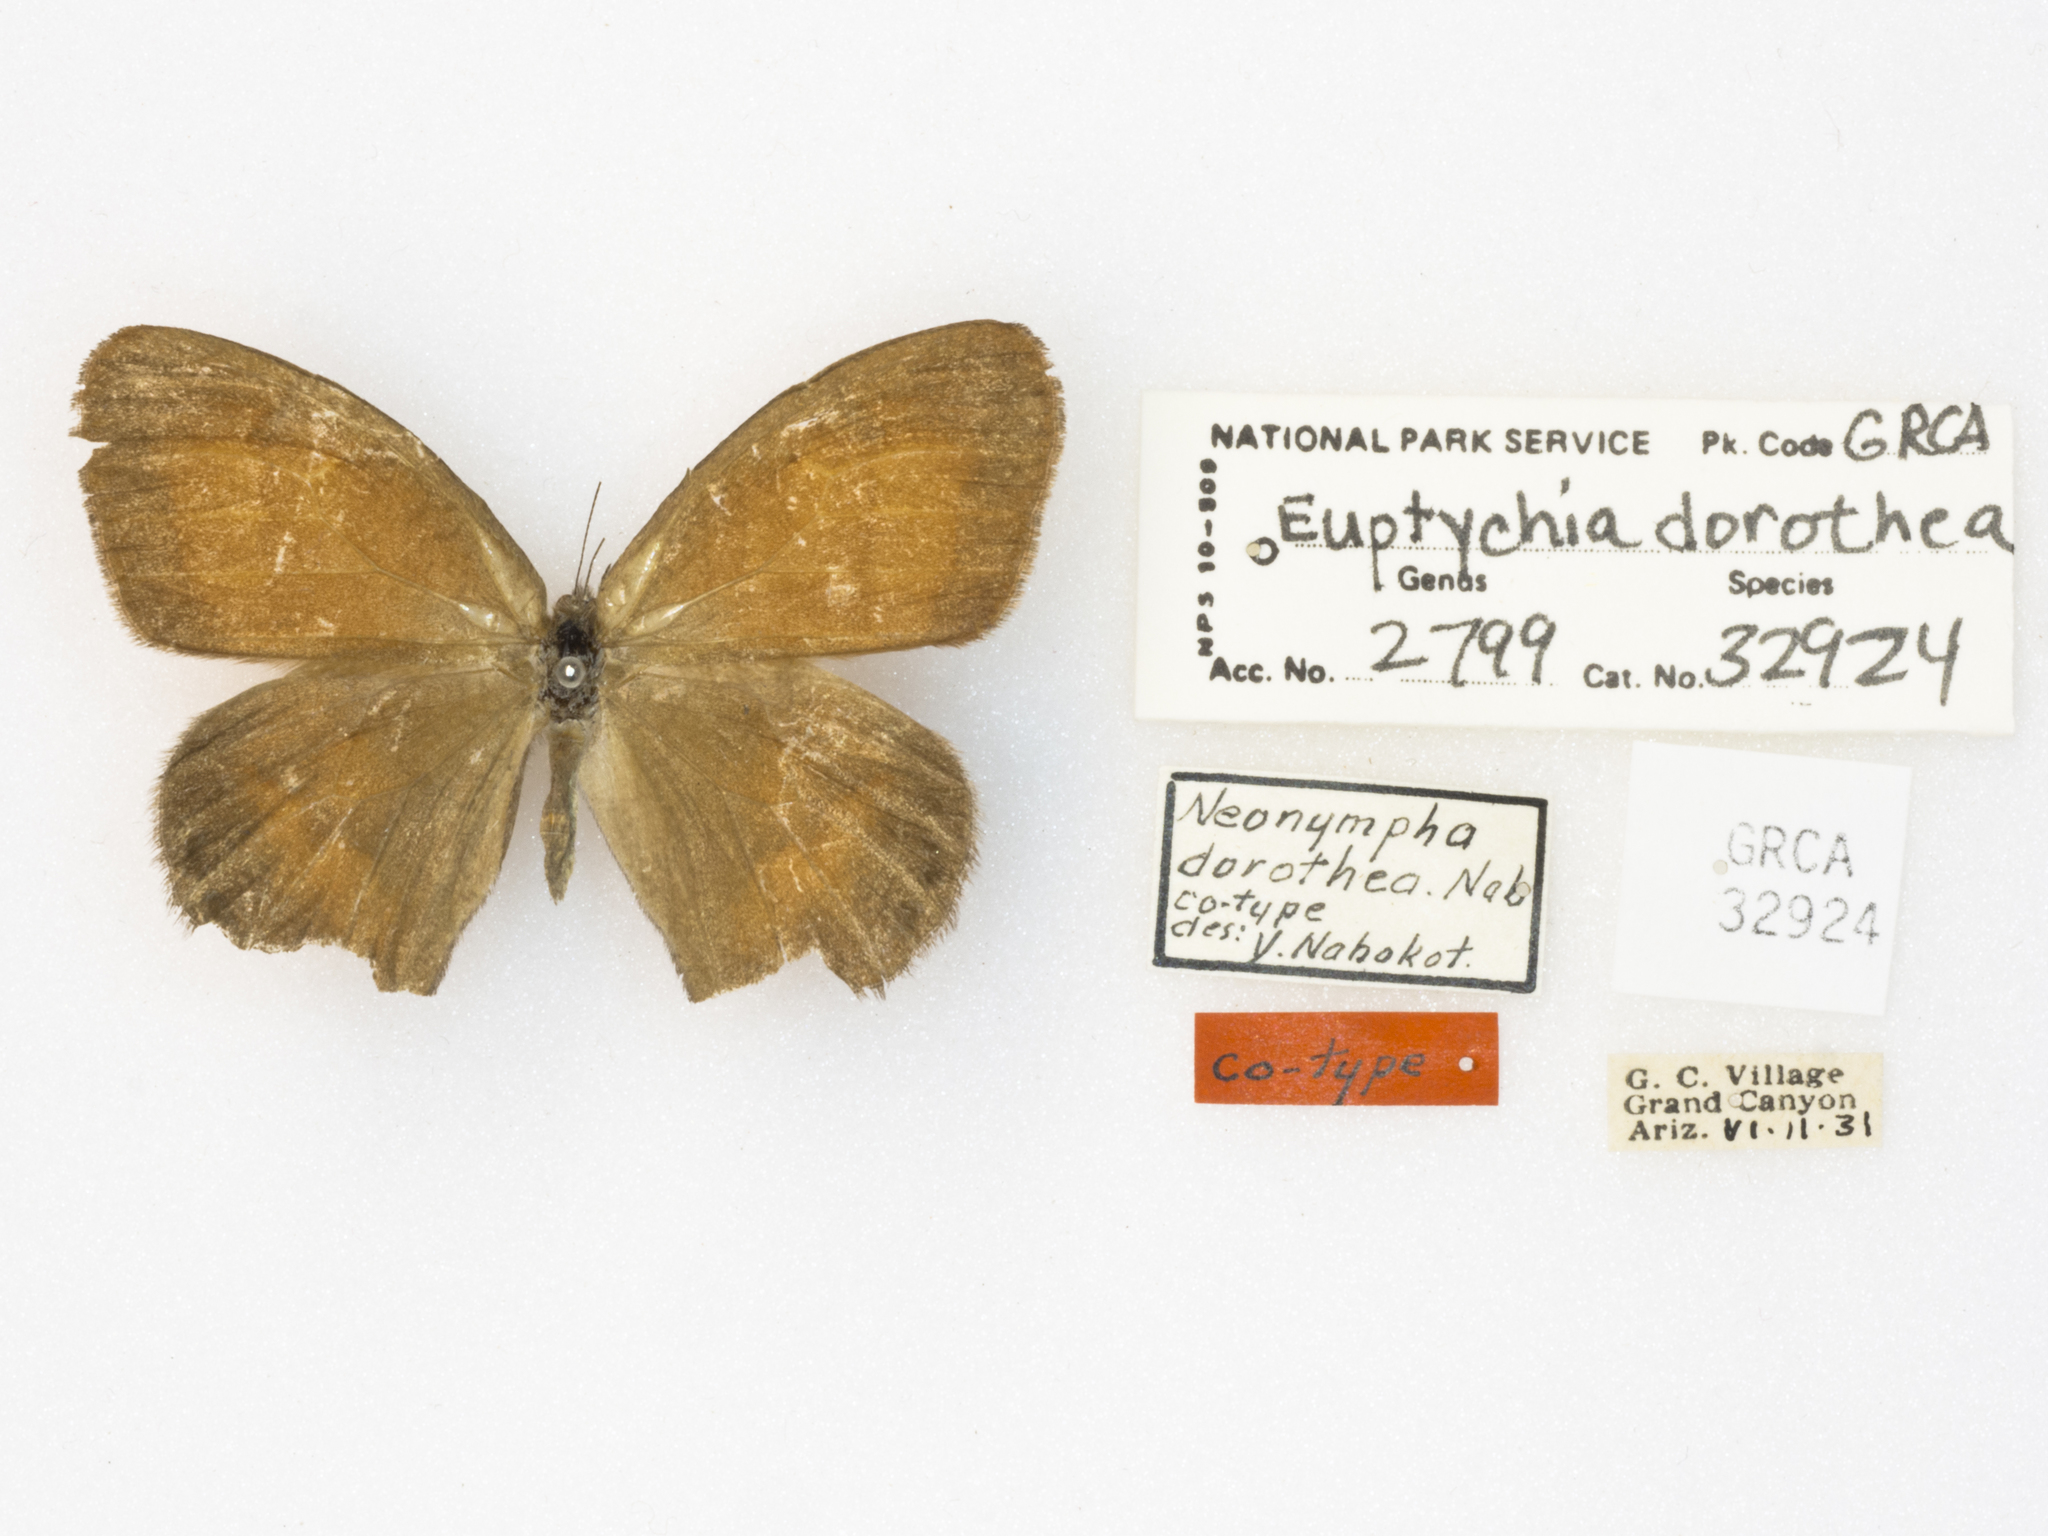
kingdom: Animalia
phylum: Arthropoda
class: Insecta
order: Lepidoptera
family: Nymphalidae
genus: Euptychia
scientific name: Euptychia dorothea
